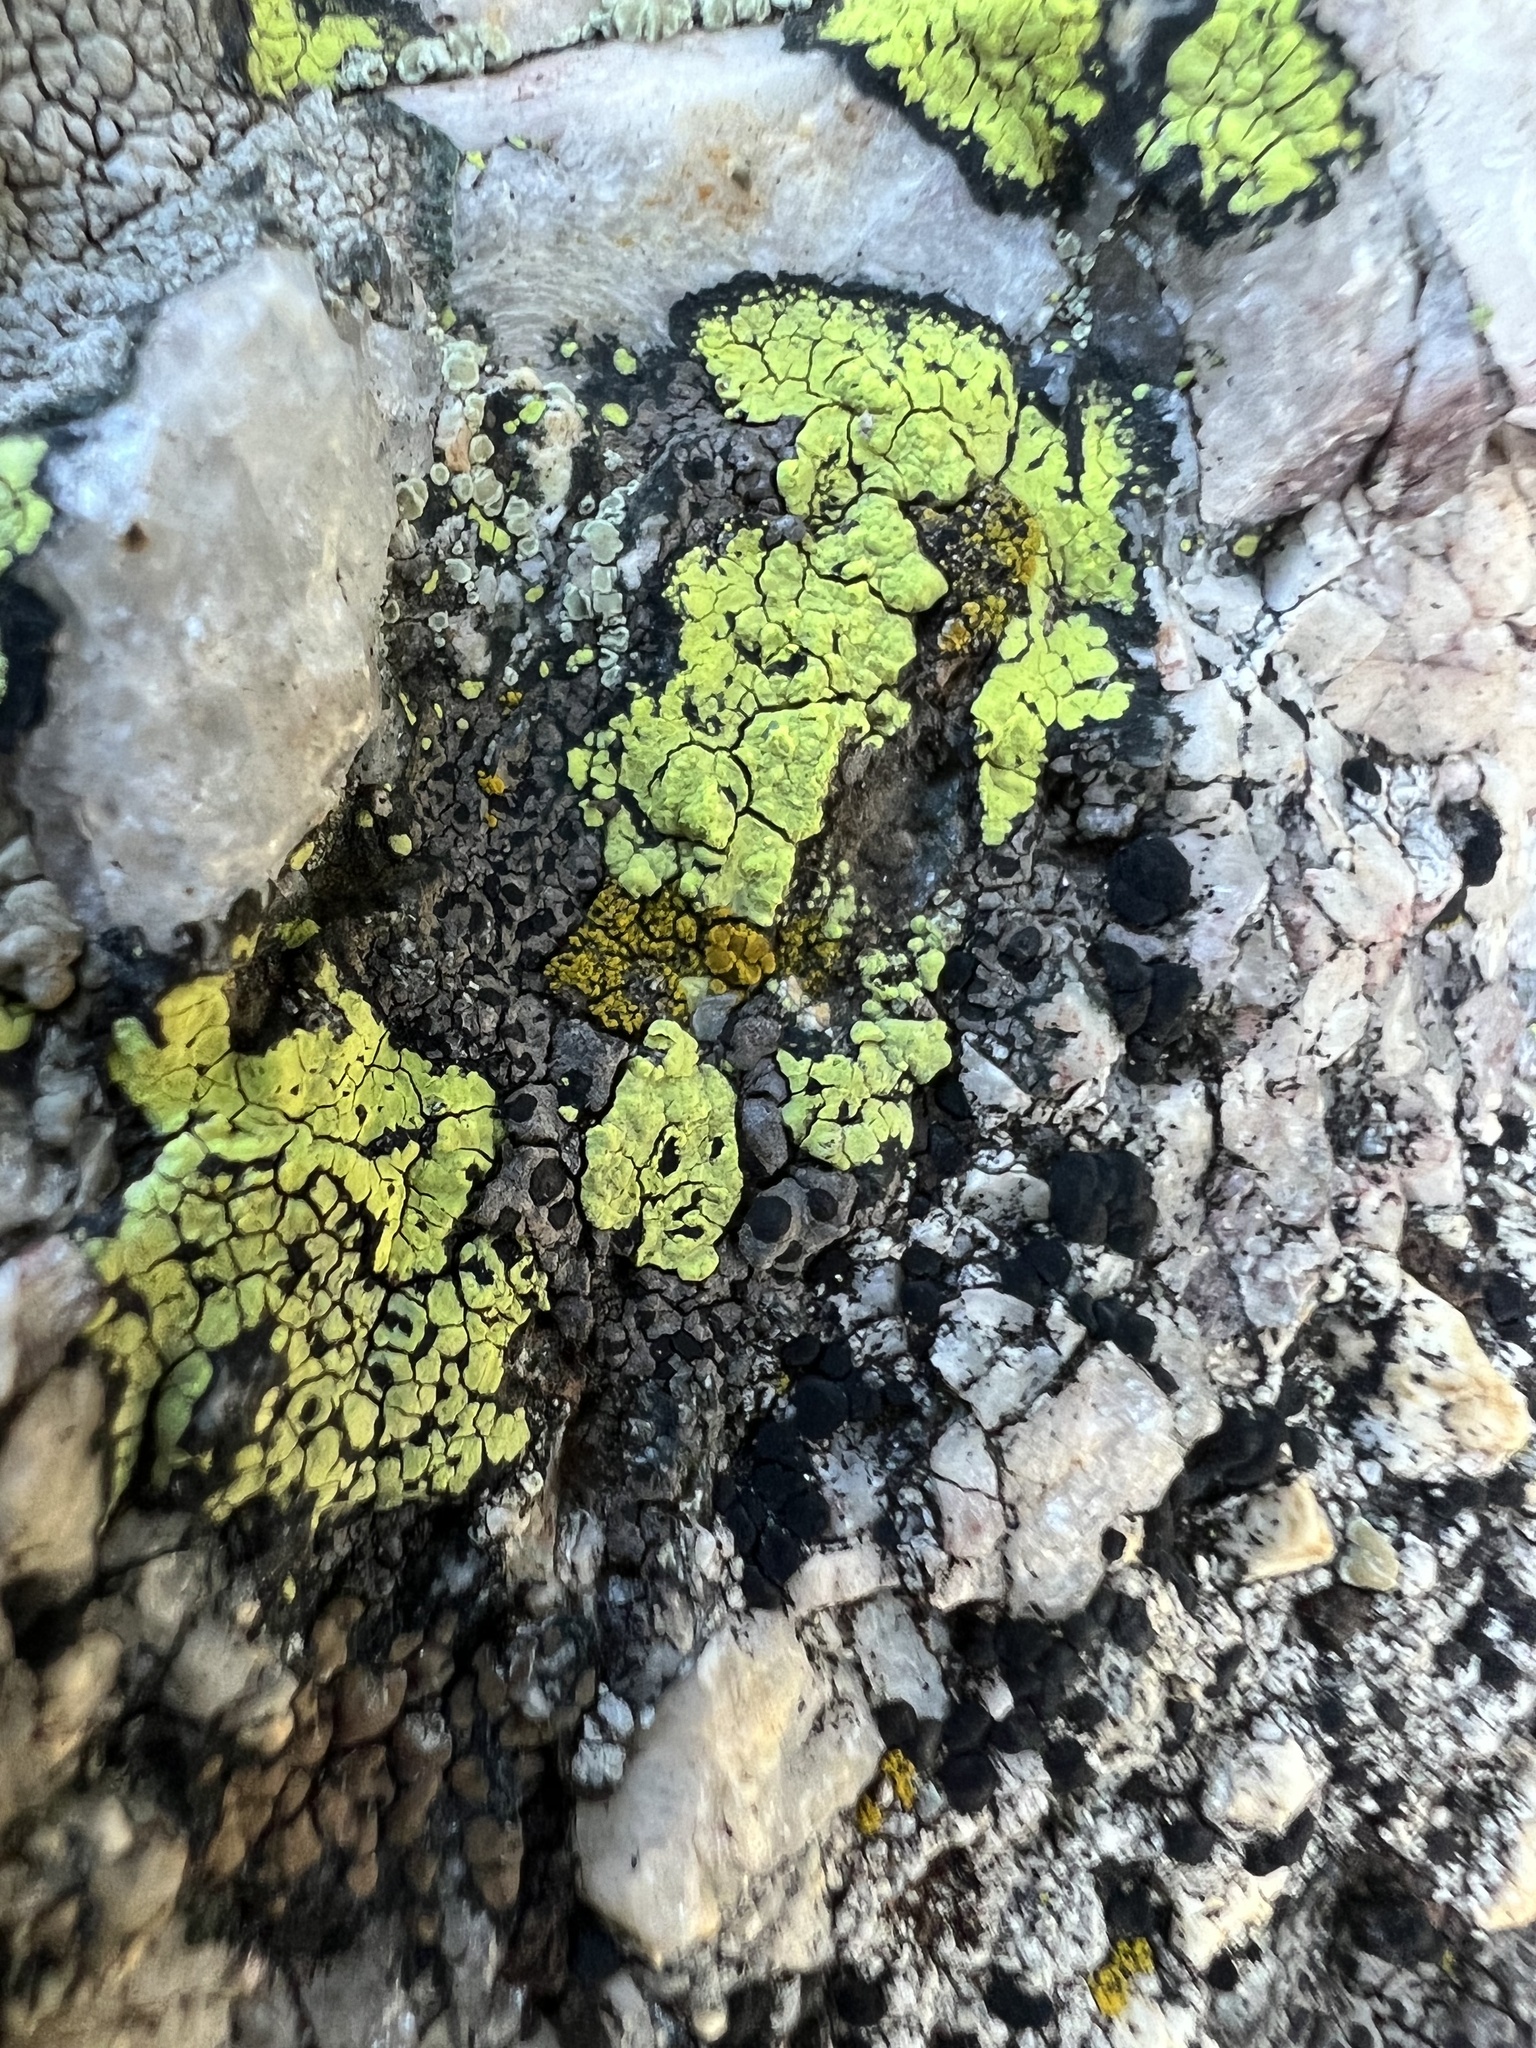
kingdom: Fungi
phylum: Ascomycota
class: Lecanoromycetes
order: Rhizocarpales
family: Rhizocarpaceae
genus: Rhizocarpon
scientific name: Rhizocarpon geographicum
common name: Yellow map lichen
